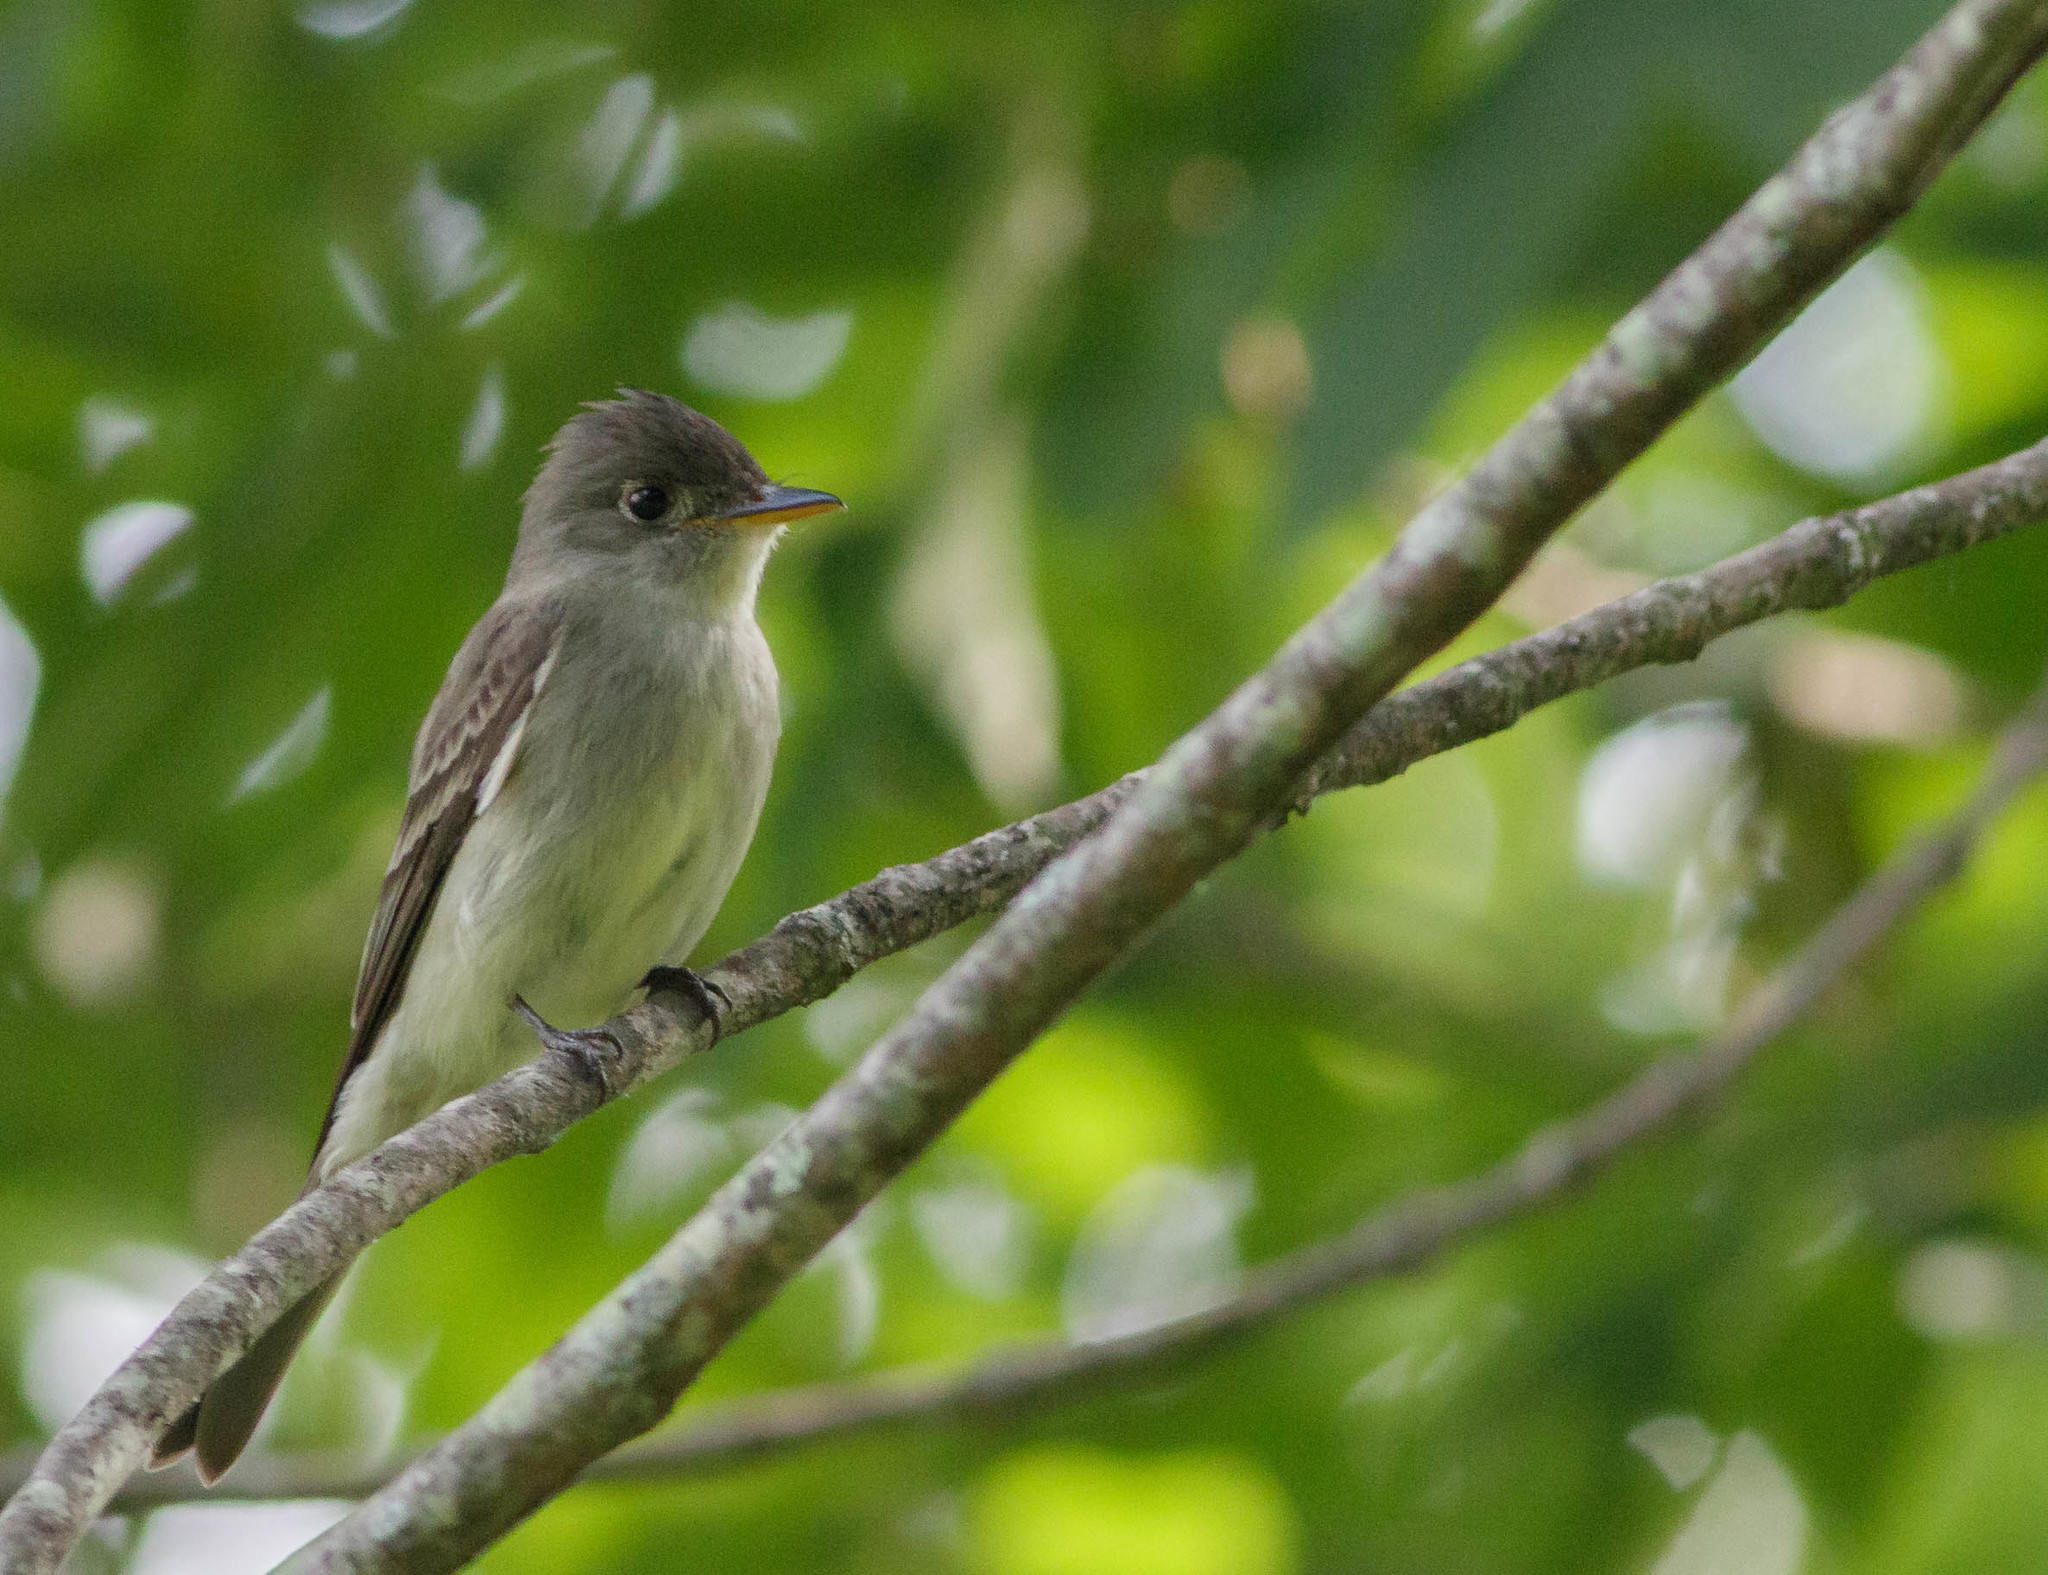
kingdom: Animalia
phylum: Chordata
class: Aves
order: Passeriformes
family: Tyrannidae
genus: Contopus
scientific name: Contopus virens
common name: Eastern wood-pewee
